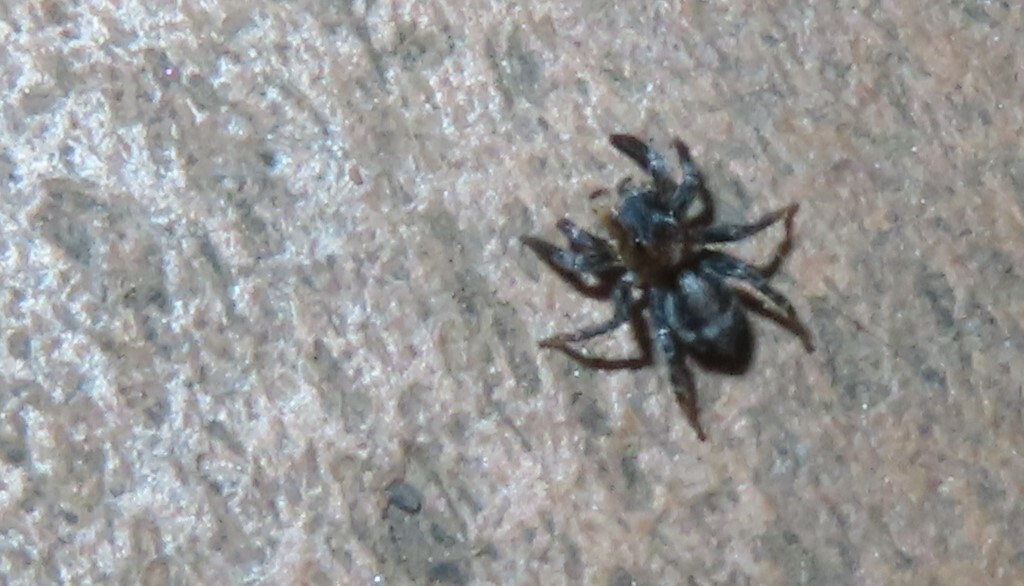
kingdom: Animalia
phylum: Arthropoda
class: Arachnida
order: Araneae
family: Salticidae
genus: Naphrys
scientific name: Naphrys pulex
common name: Flea jumping spider
